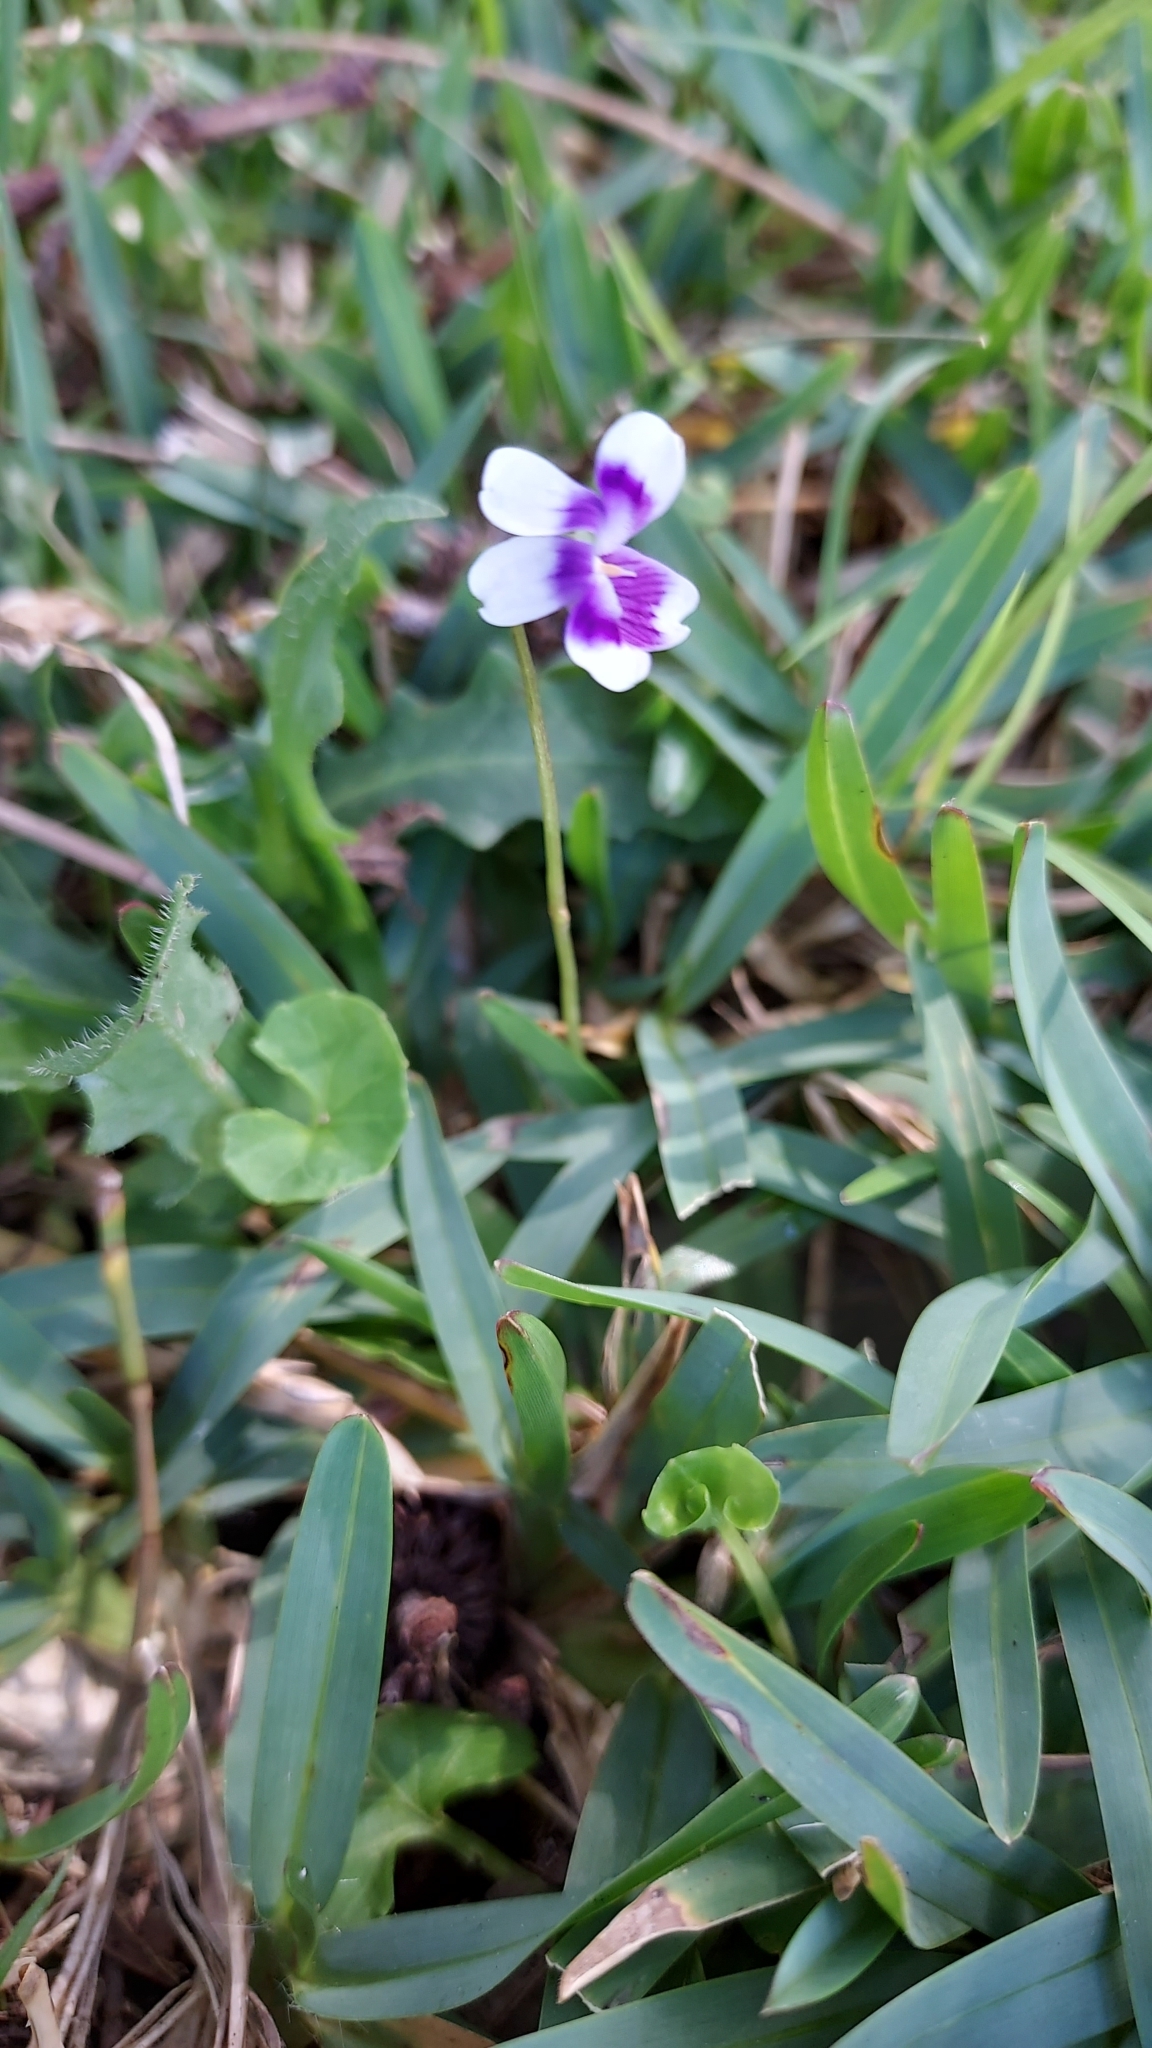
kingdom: Plantae
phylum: Tracheophyta
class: Magnoliopsida
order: Malpighiales
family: Violaceae
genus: Viola
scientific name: Viola banksii
